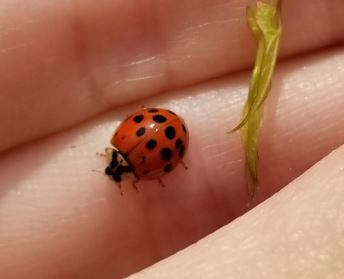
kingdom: Animalia
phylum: Arthropoda
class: Insecta
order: Coleoptera
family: Coccinellidae
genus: Harmonia
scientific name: Harmonia axyridis
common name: Harlequin ladybird
